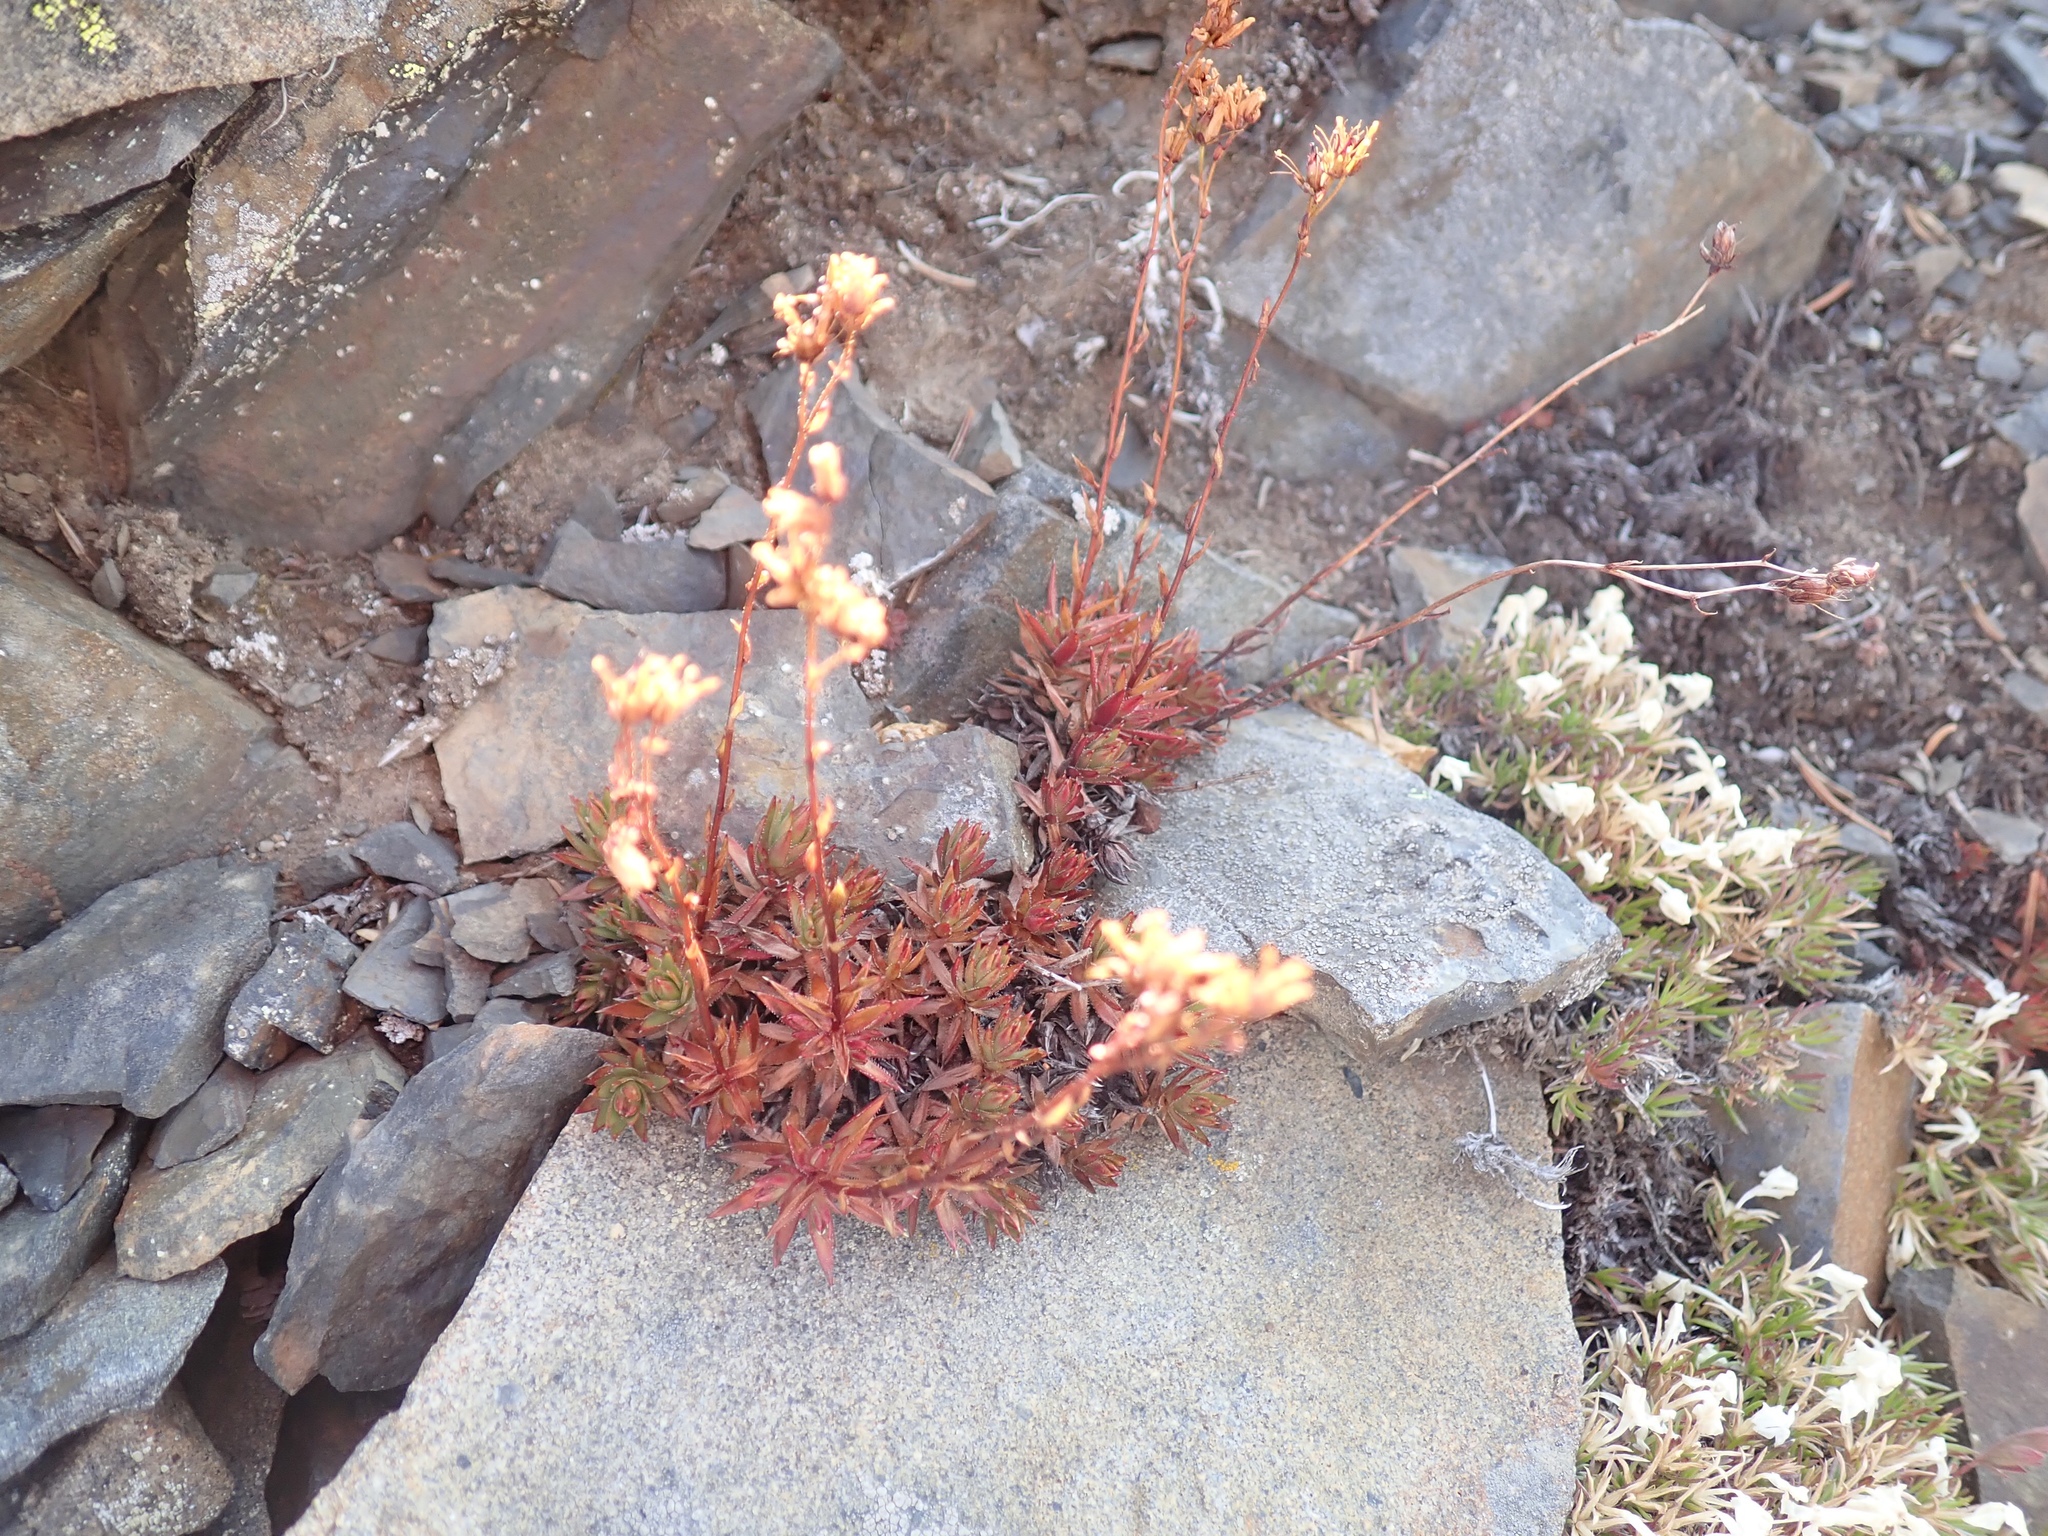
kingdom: Plantae
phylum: Tracheophyta
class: Magnoliopsida
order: Saxifragales
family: Saxifragaceae
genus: Saxifraga
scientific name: Saxifraga bronchialis
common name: Matted saxifrage
